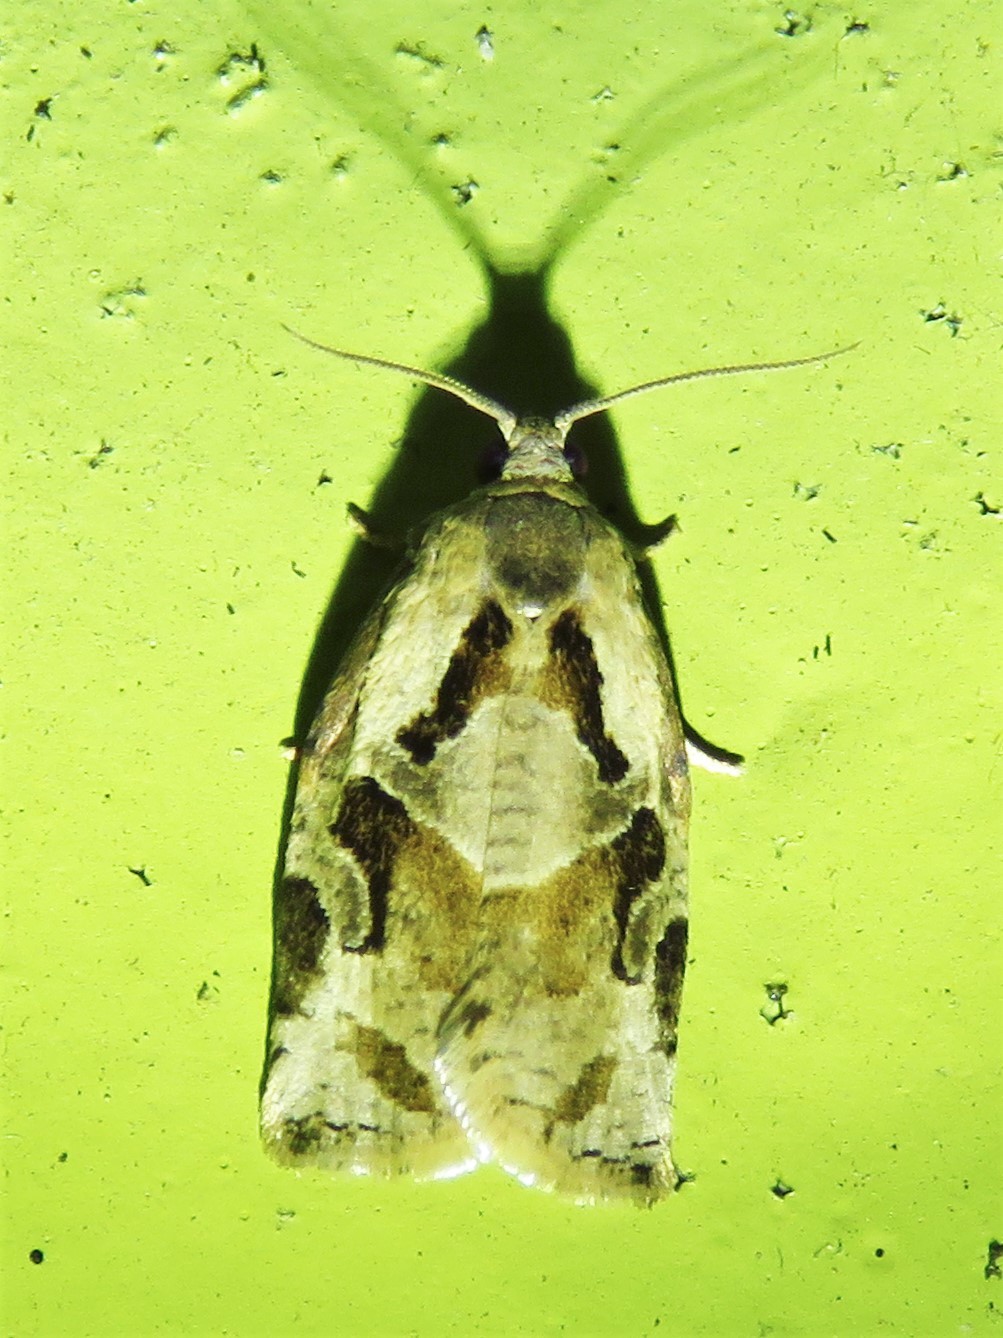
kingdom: Animalia
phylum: Arthropoda
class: Insecta
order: Lepidoptera
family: Tortricidae
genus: Archips
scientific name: Archips grisea
